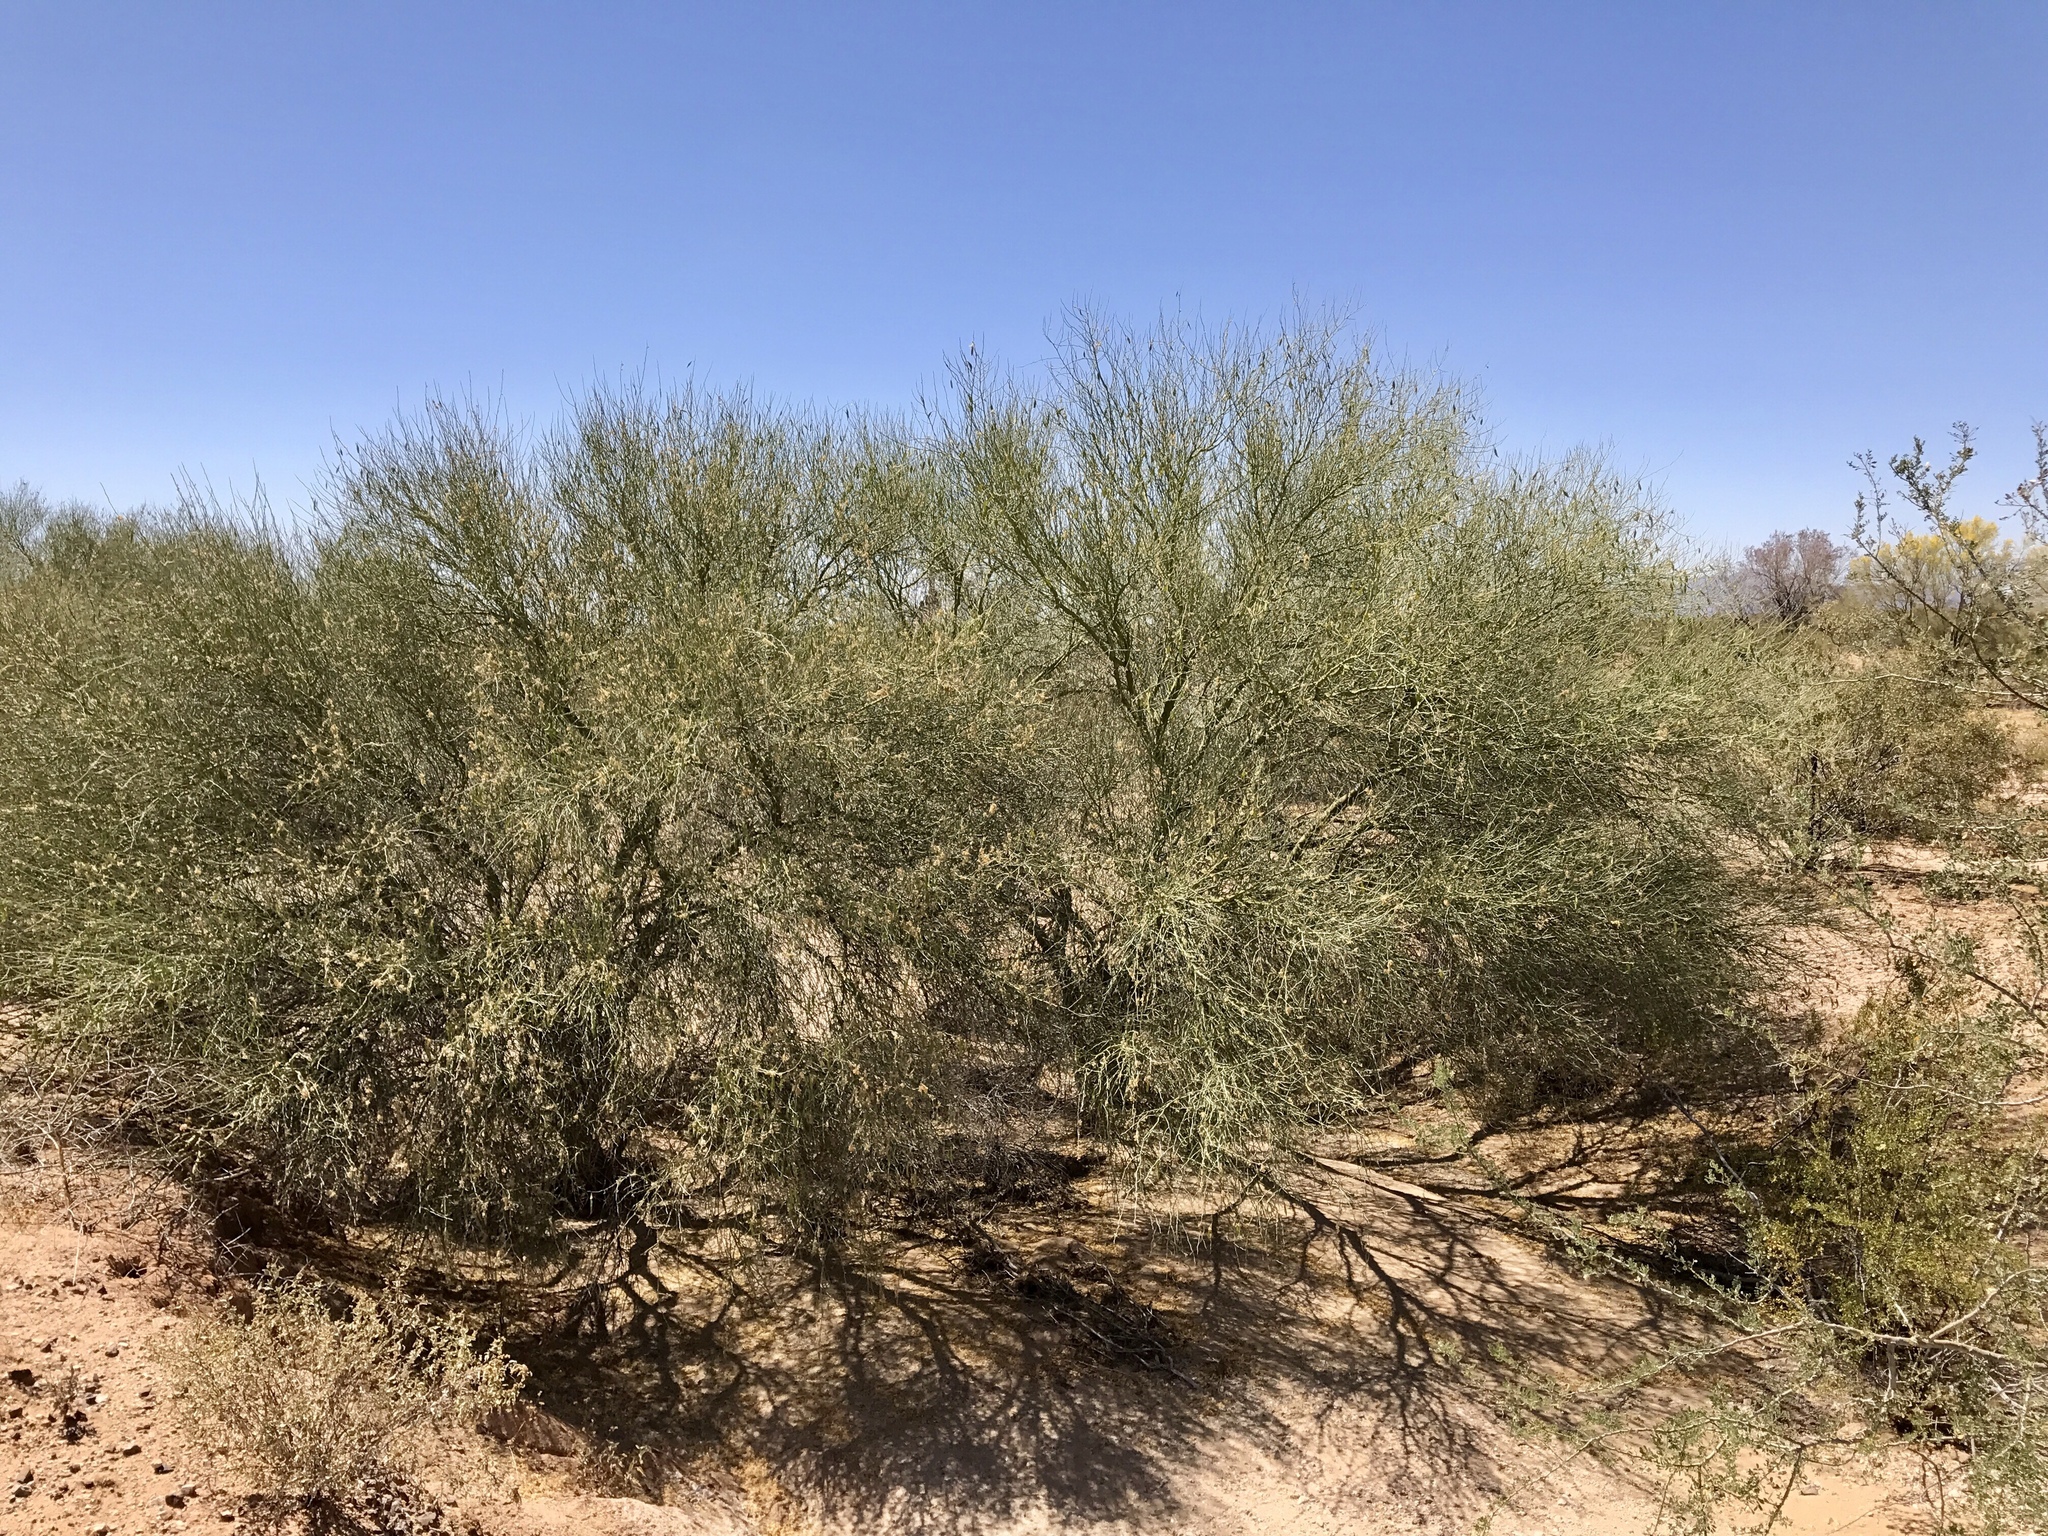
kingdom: Plantae
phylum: Tracheophyta
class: Magnoliopsida
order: Fabales
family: Fabaceae
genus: Parkinsonia
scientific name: Parkinsonia florida
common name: Blue paloverde
